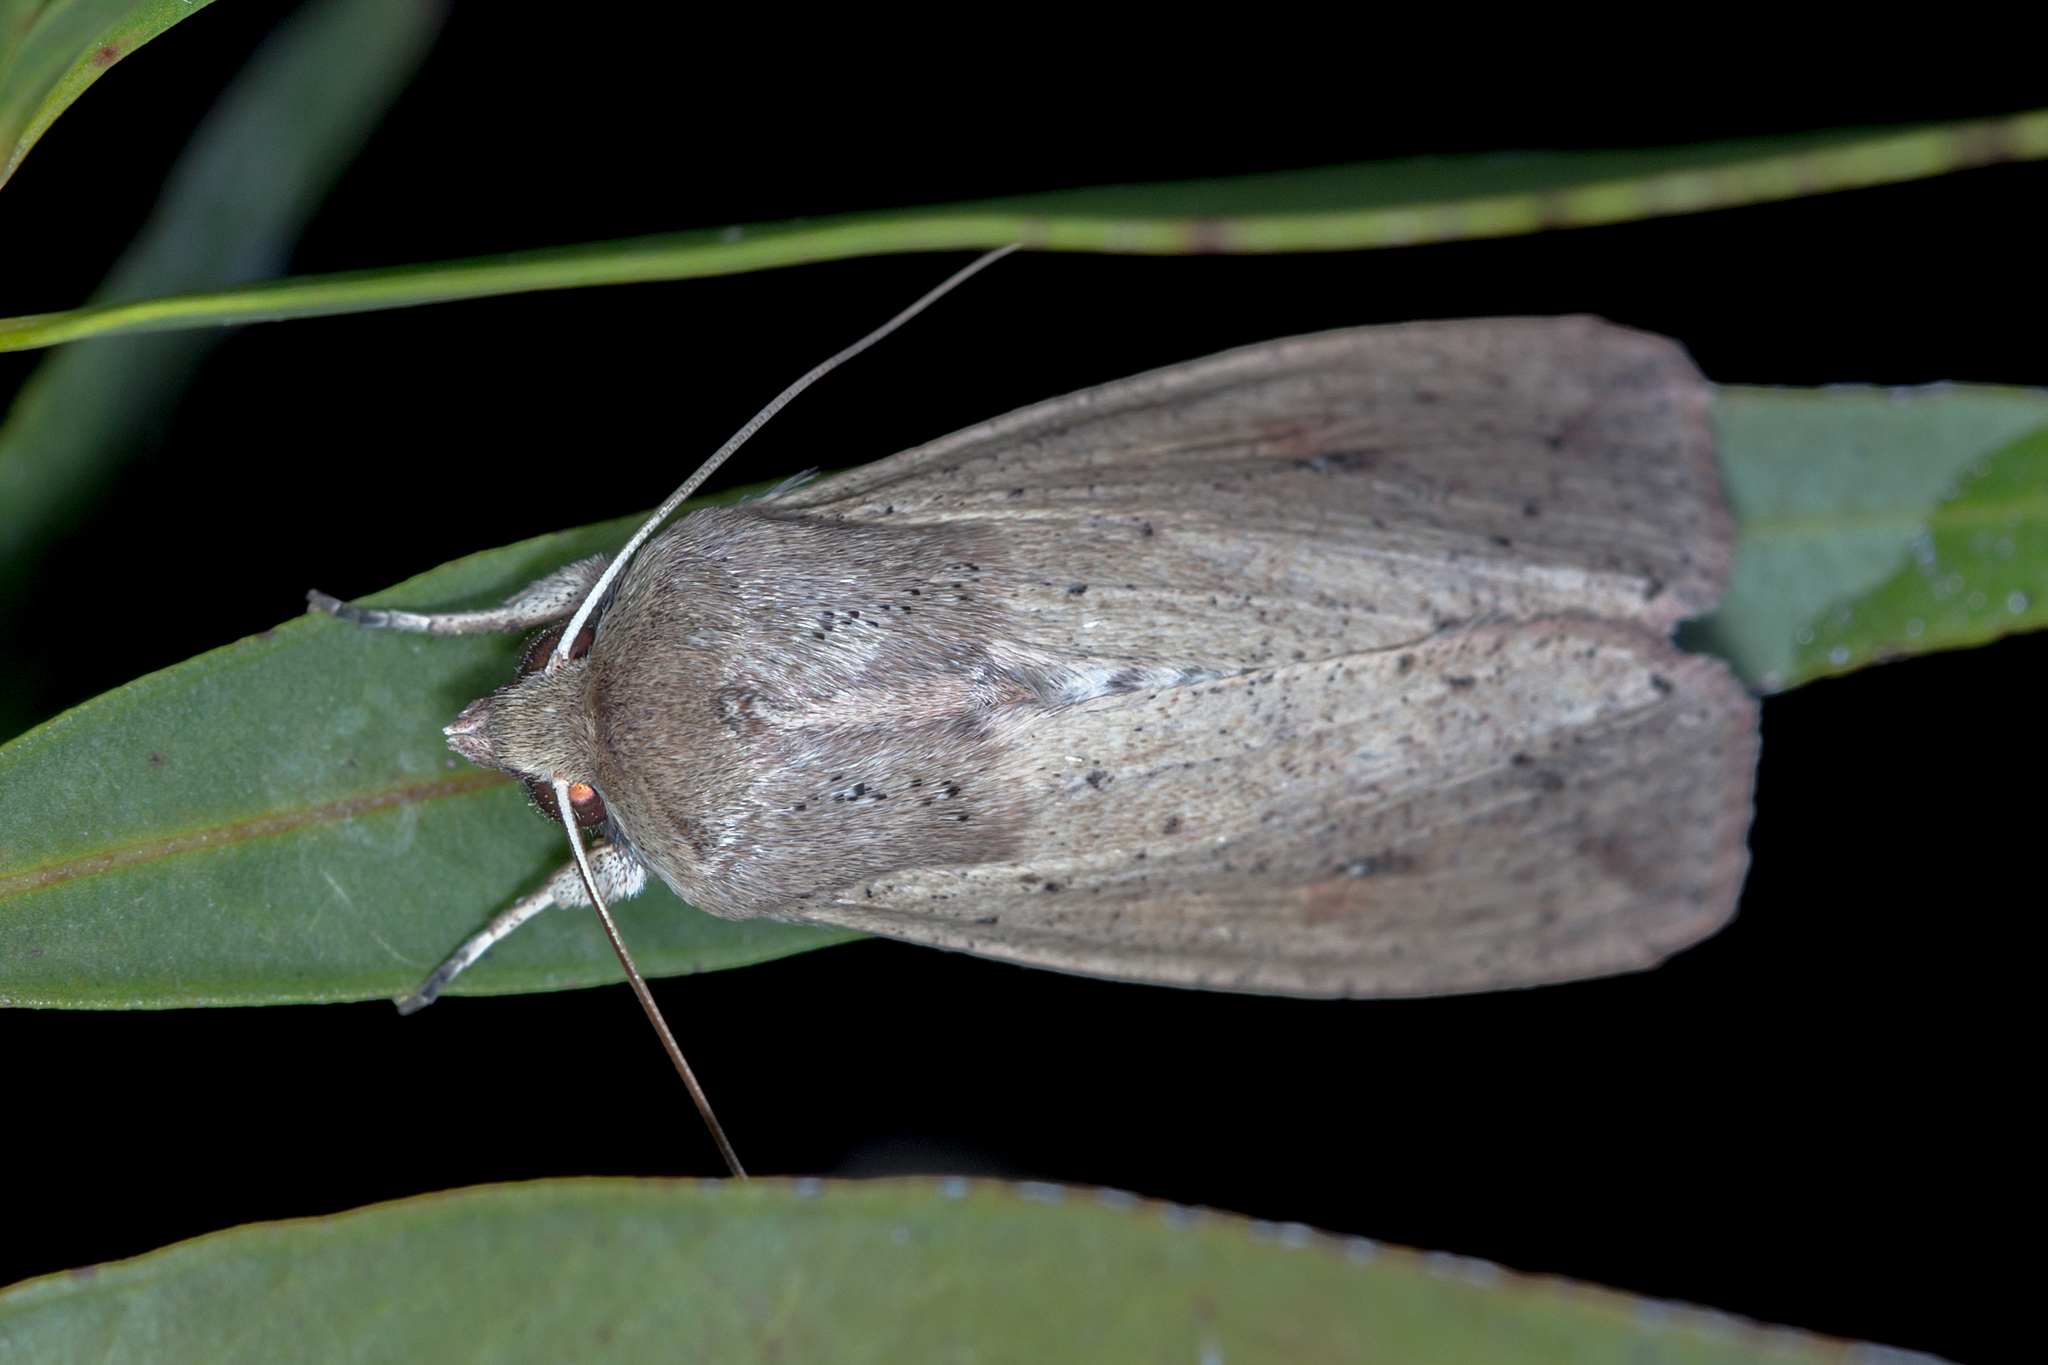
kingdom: Animalia
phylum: Arthropoda
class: Insecta
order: Lepidoptera
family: Noctuidae
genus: Mythimna
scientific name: Mythimna convecta
